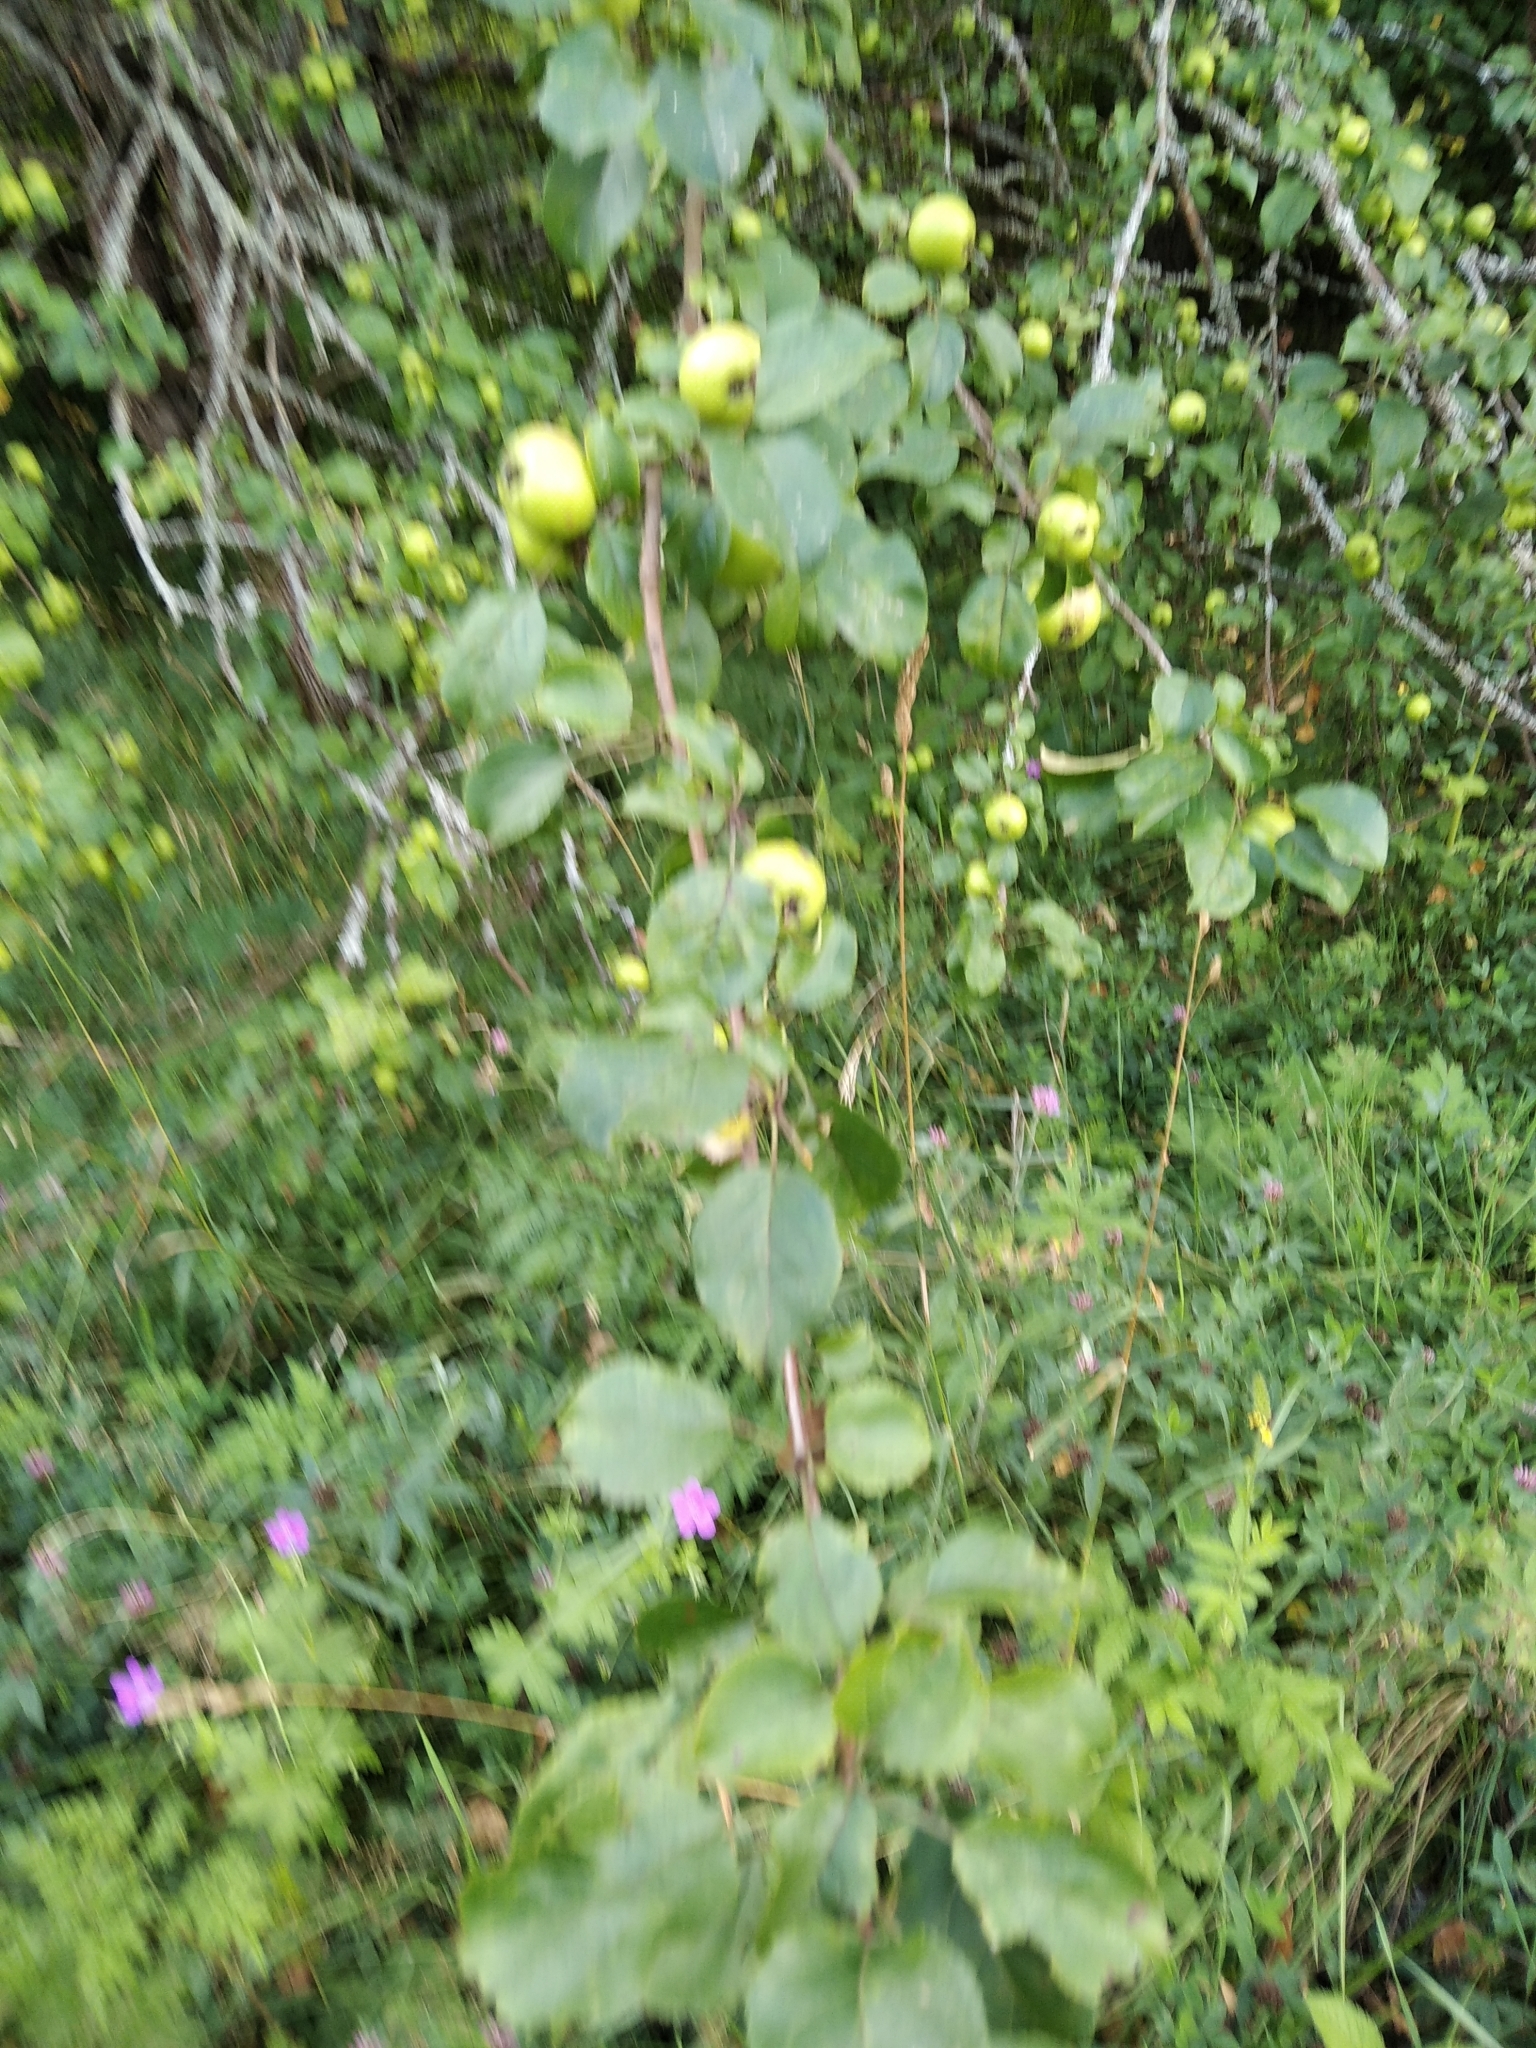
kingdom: Plantae
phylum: Tracheophyta
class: Magnoliopsida
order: Rosales
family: Rosaceae
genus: Malus
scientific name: Malus domestica
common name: Apple
